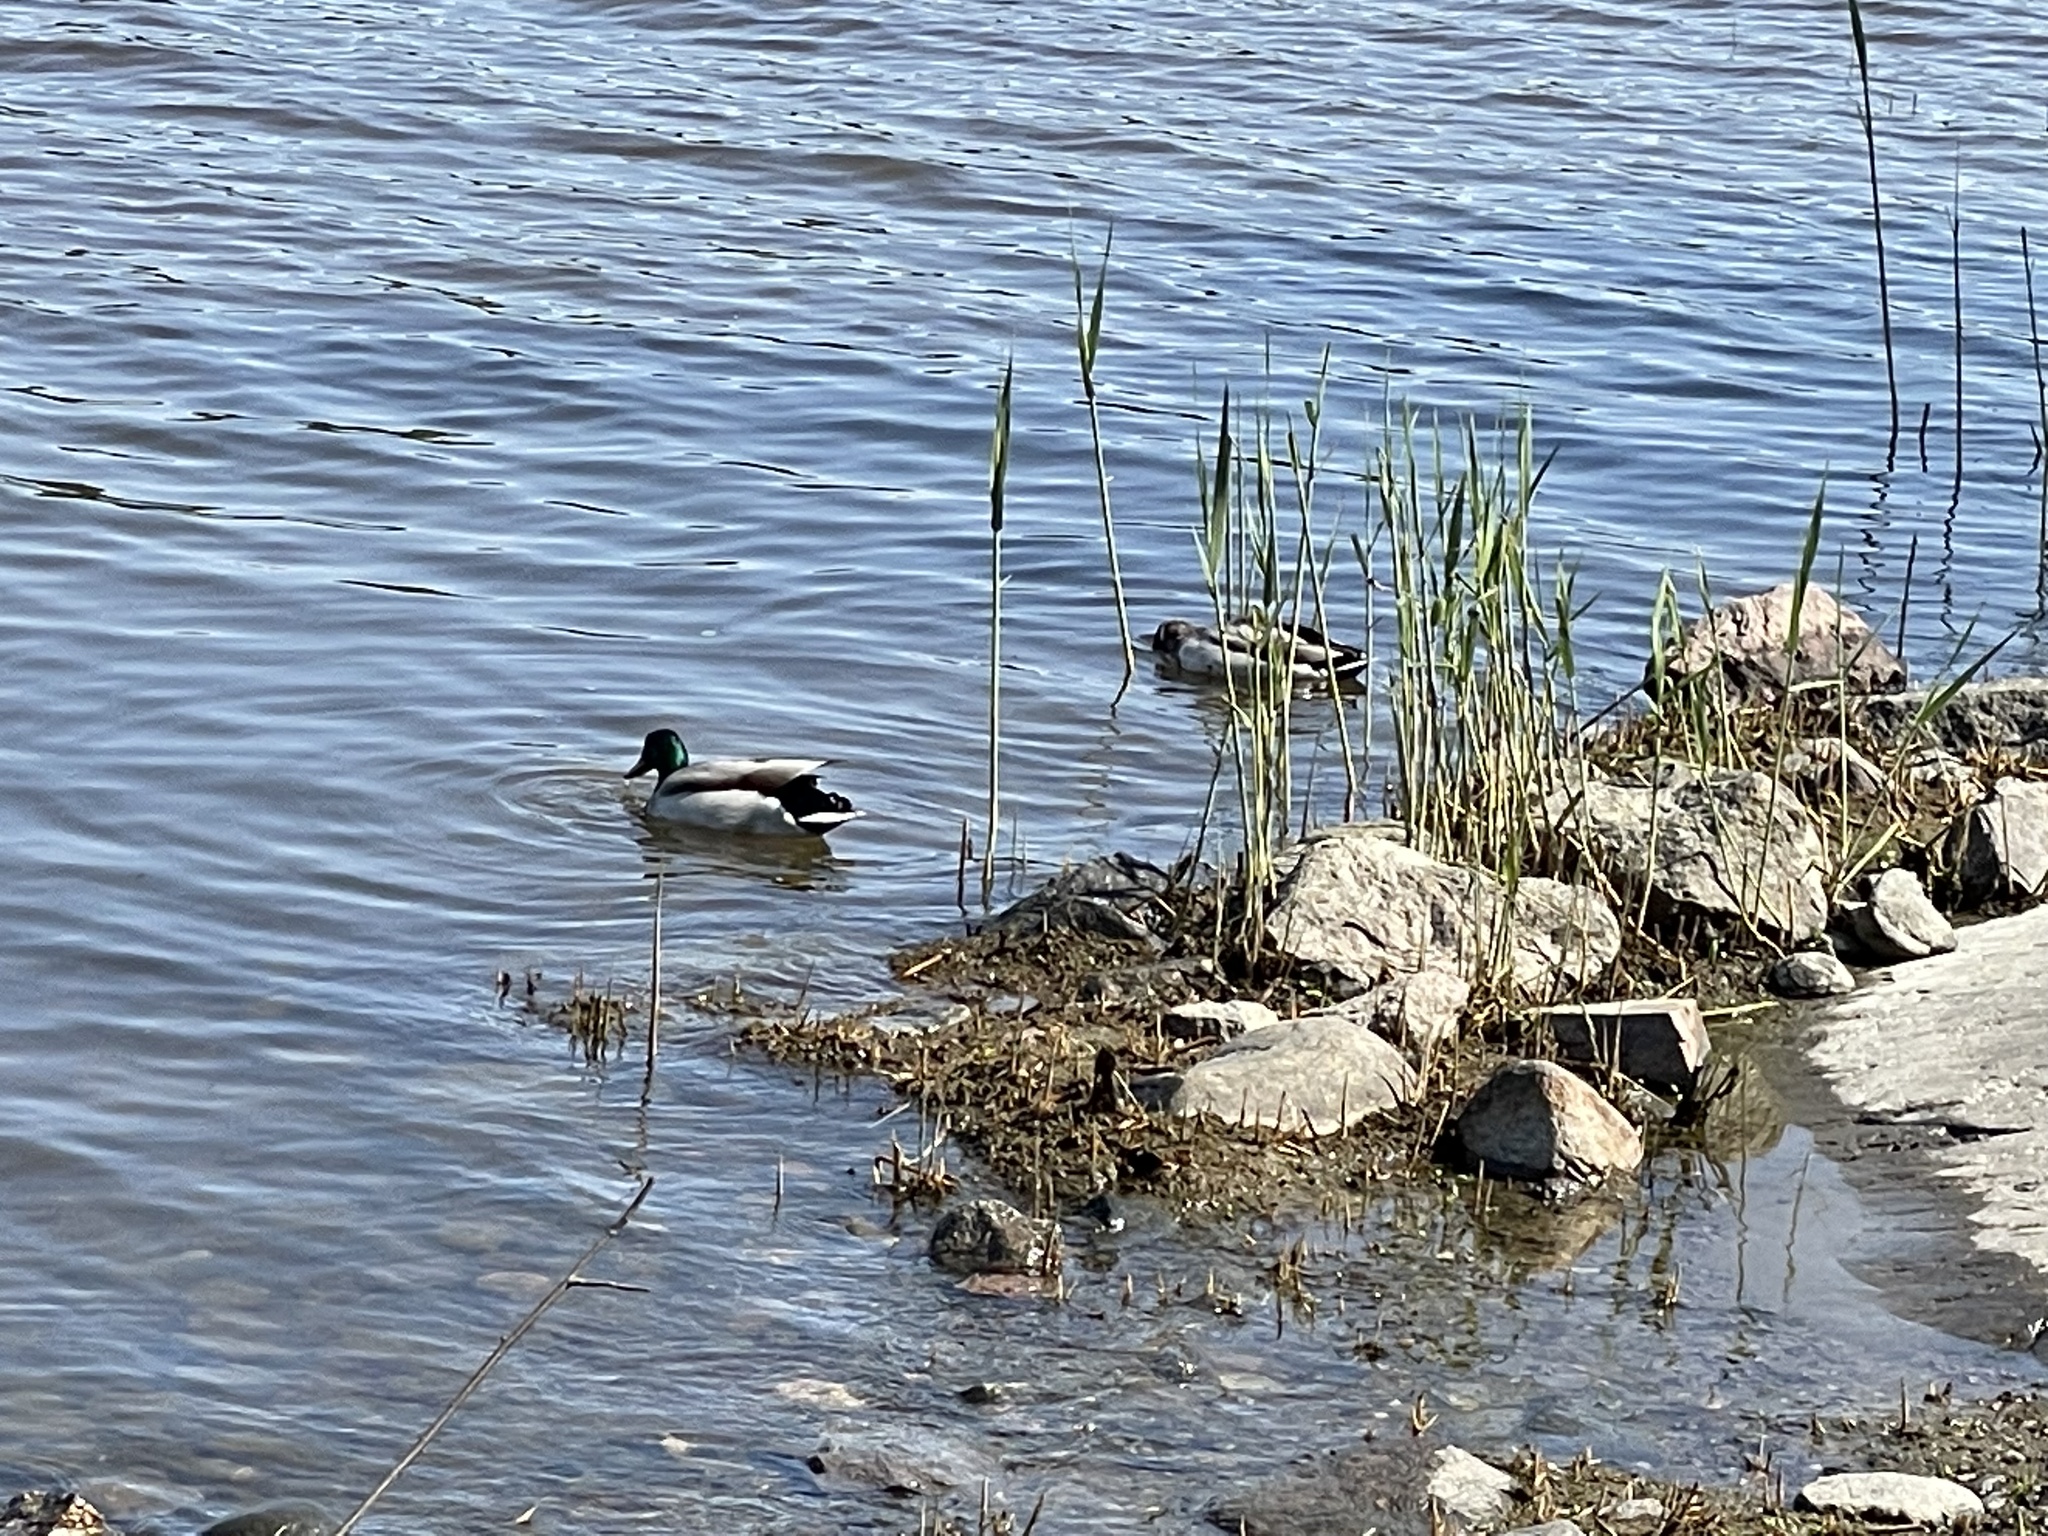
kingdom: Animalia
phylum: Chordata
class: Aves
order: Anseriformes
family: Anatidae
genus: Anas
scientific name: Anas platyrhynchos
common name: Mallard
